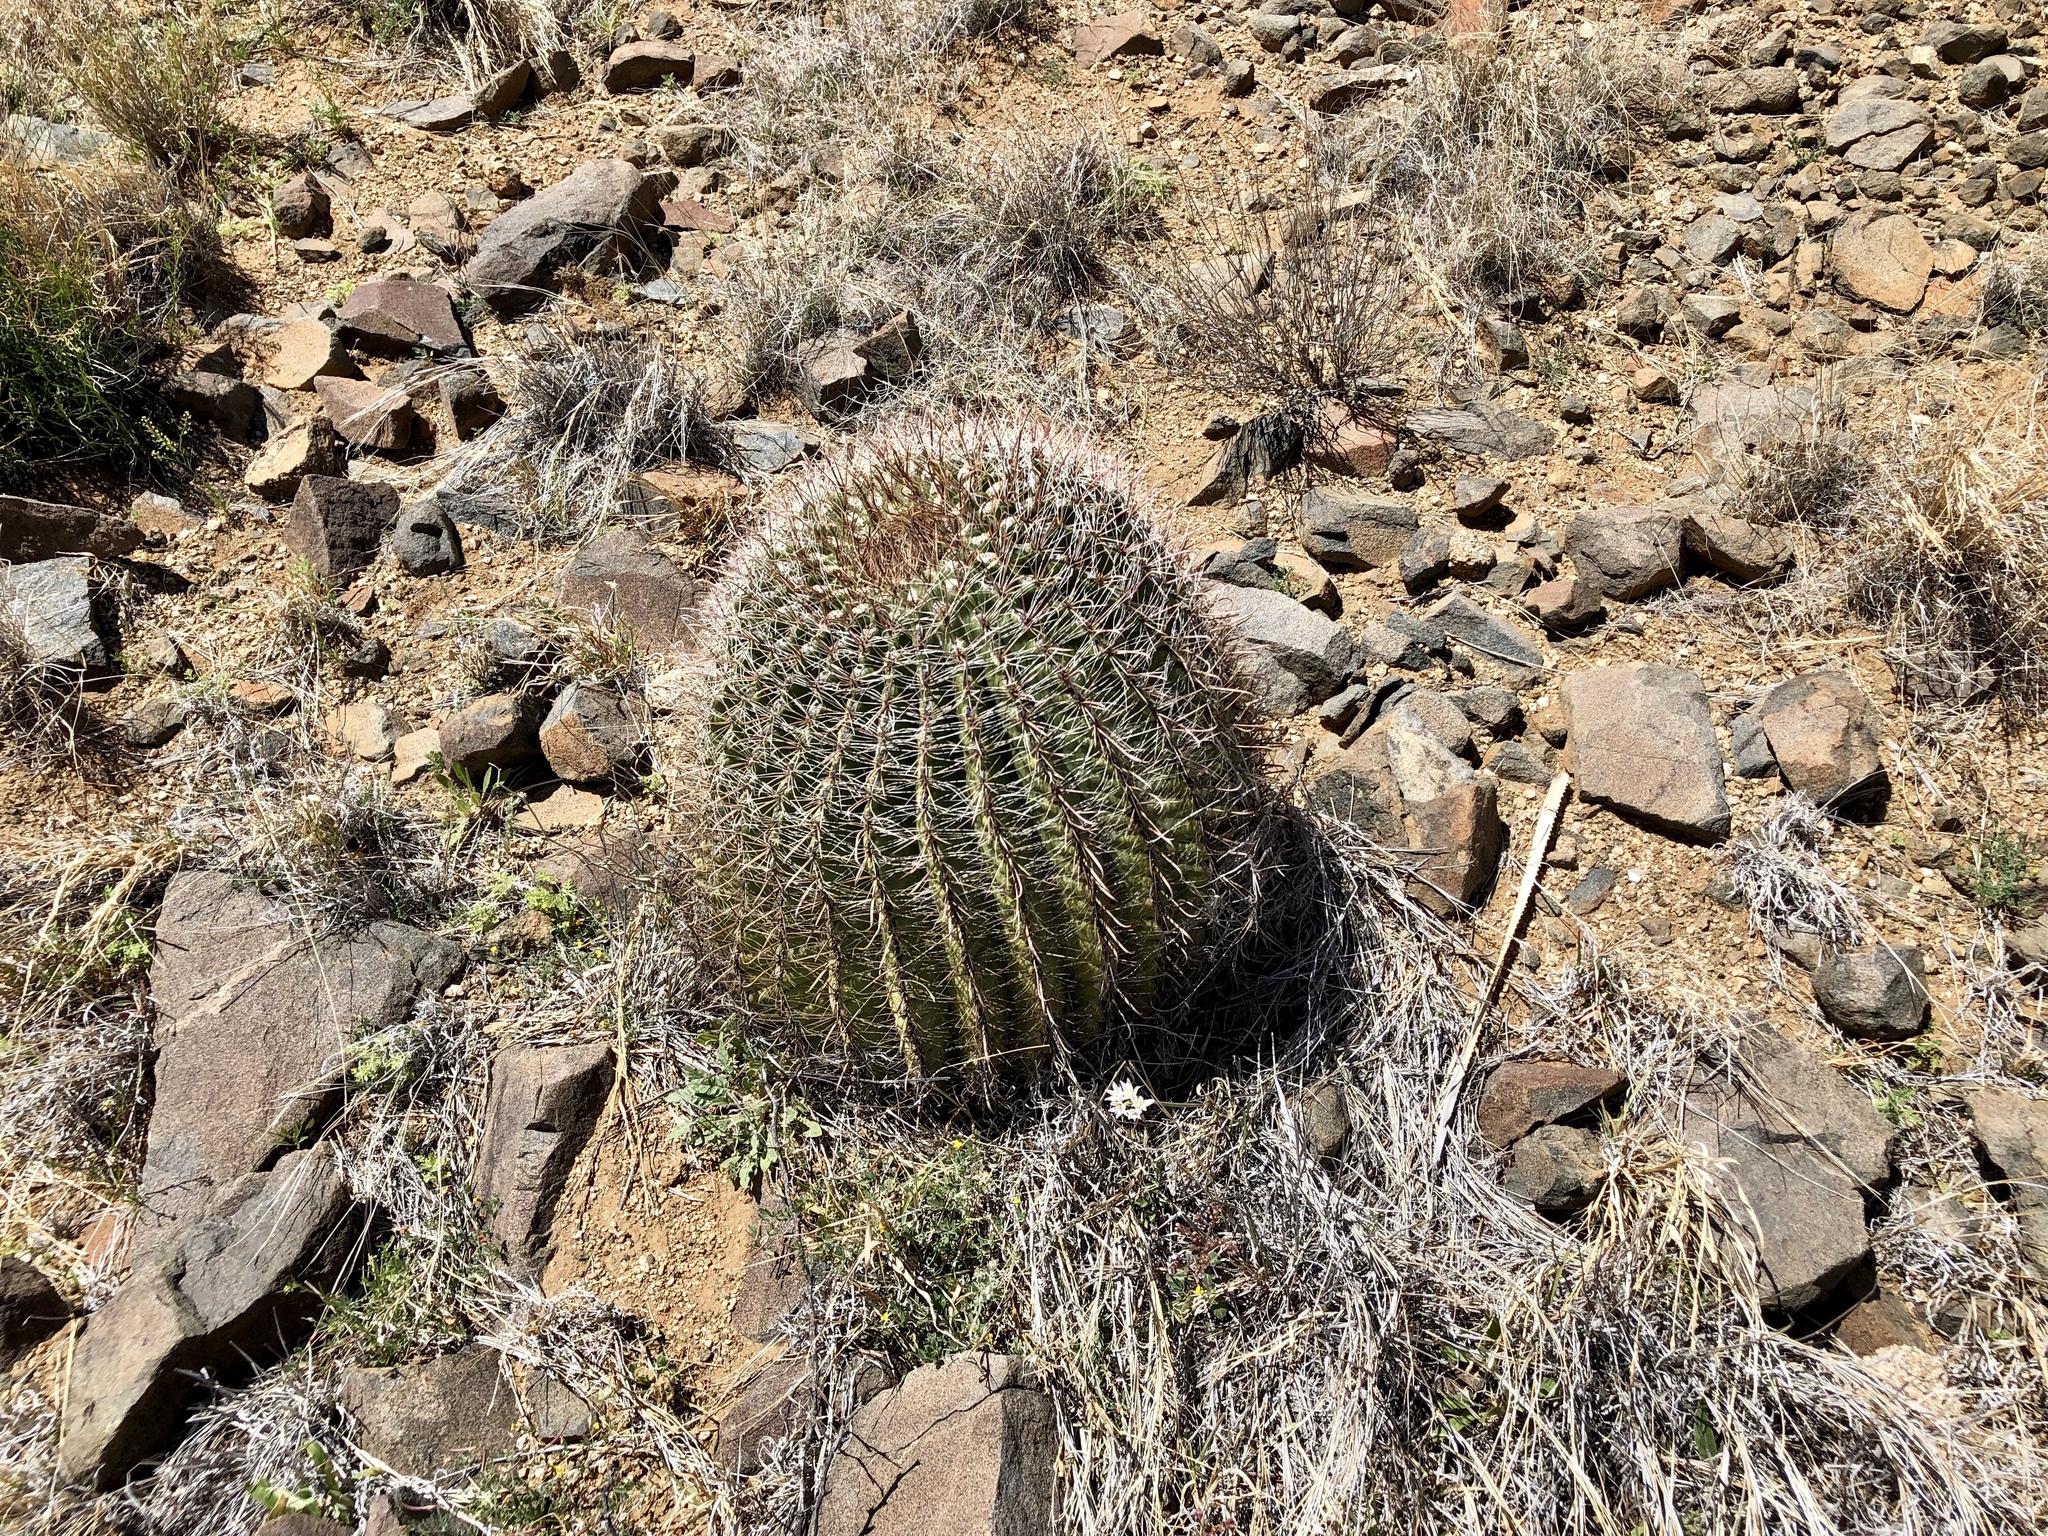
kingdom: Plantae
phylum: Tracheophyta
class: Magnoliopsida
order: Caryophyllales
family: Cactaceae
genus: Ferocactus
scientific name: Ferocactus wislizeni
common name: Candy barrel cactus
